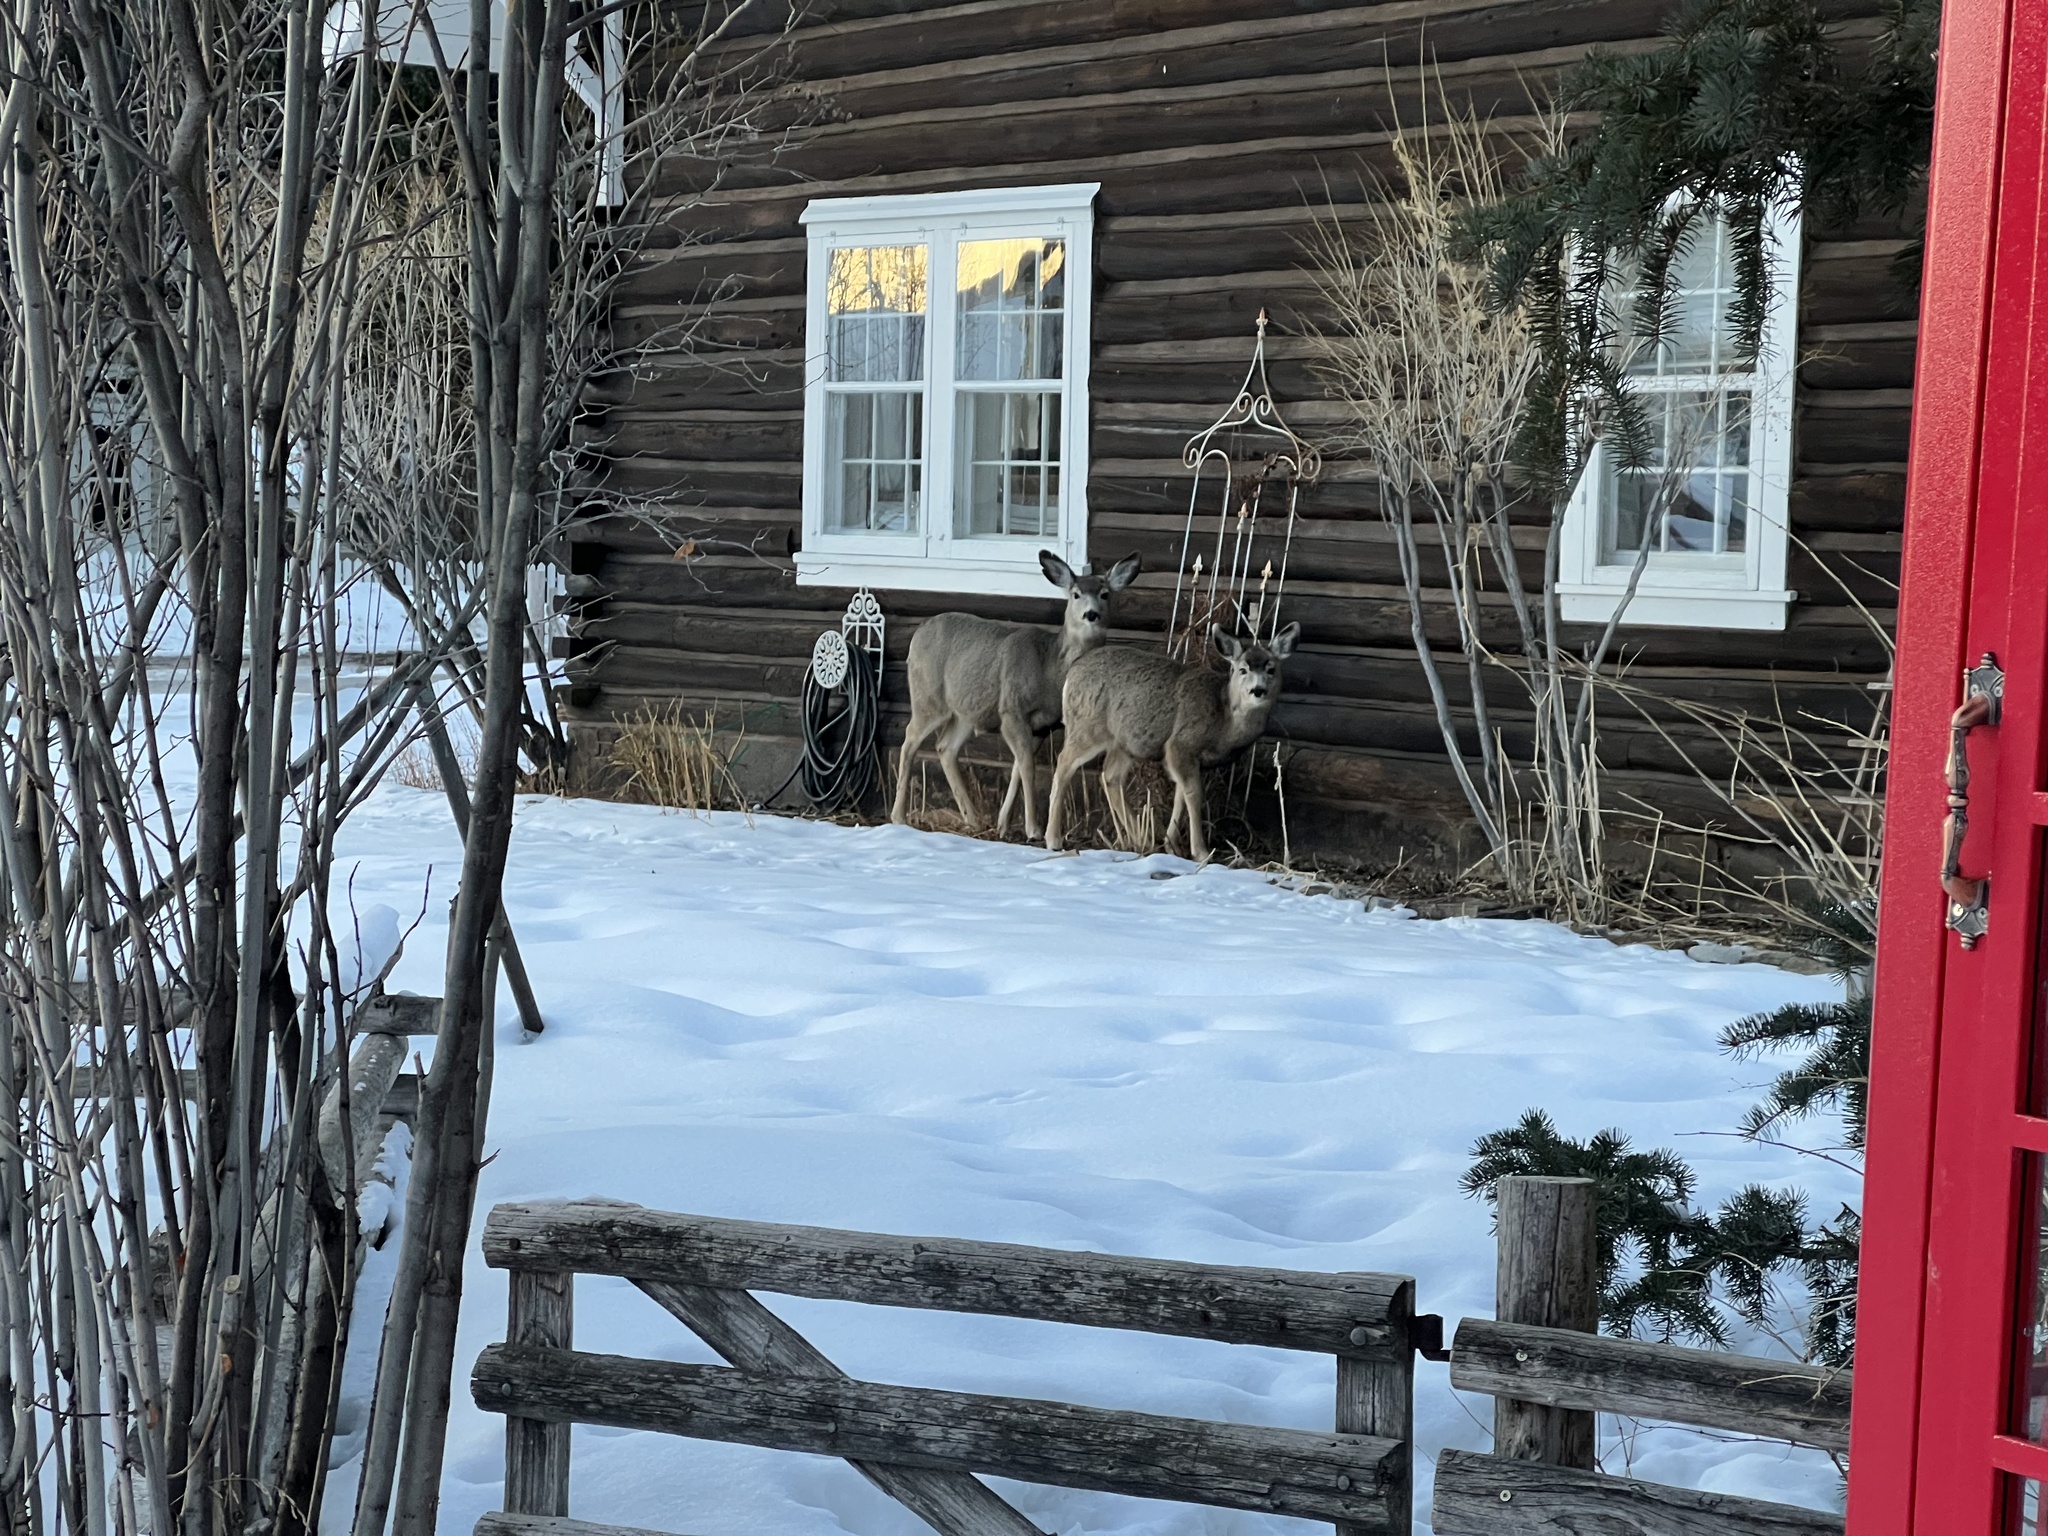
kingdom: Animalia
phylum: Chordata
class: Mammalia
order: Artiodactyla
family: Cervidae
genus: Odocoileus
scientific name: Odocoileus hemionus
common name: Mule deer
